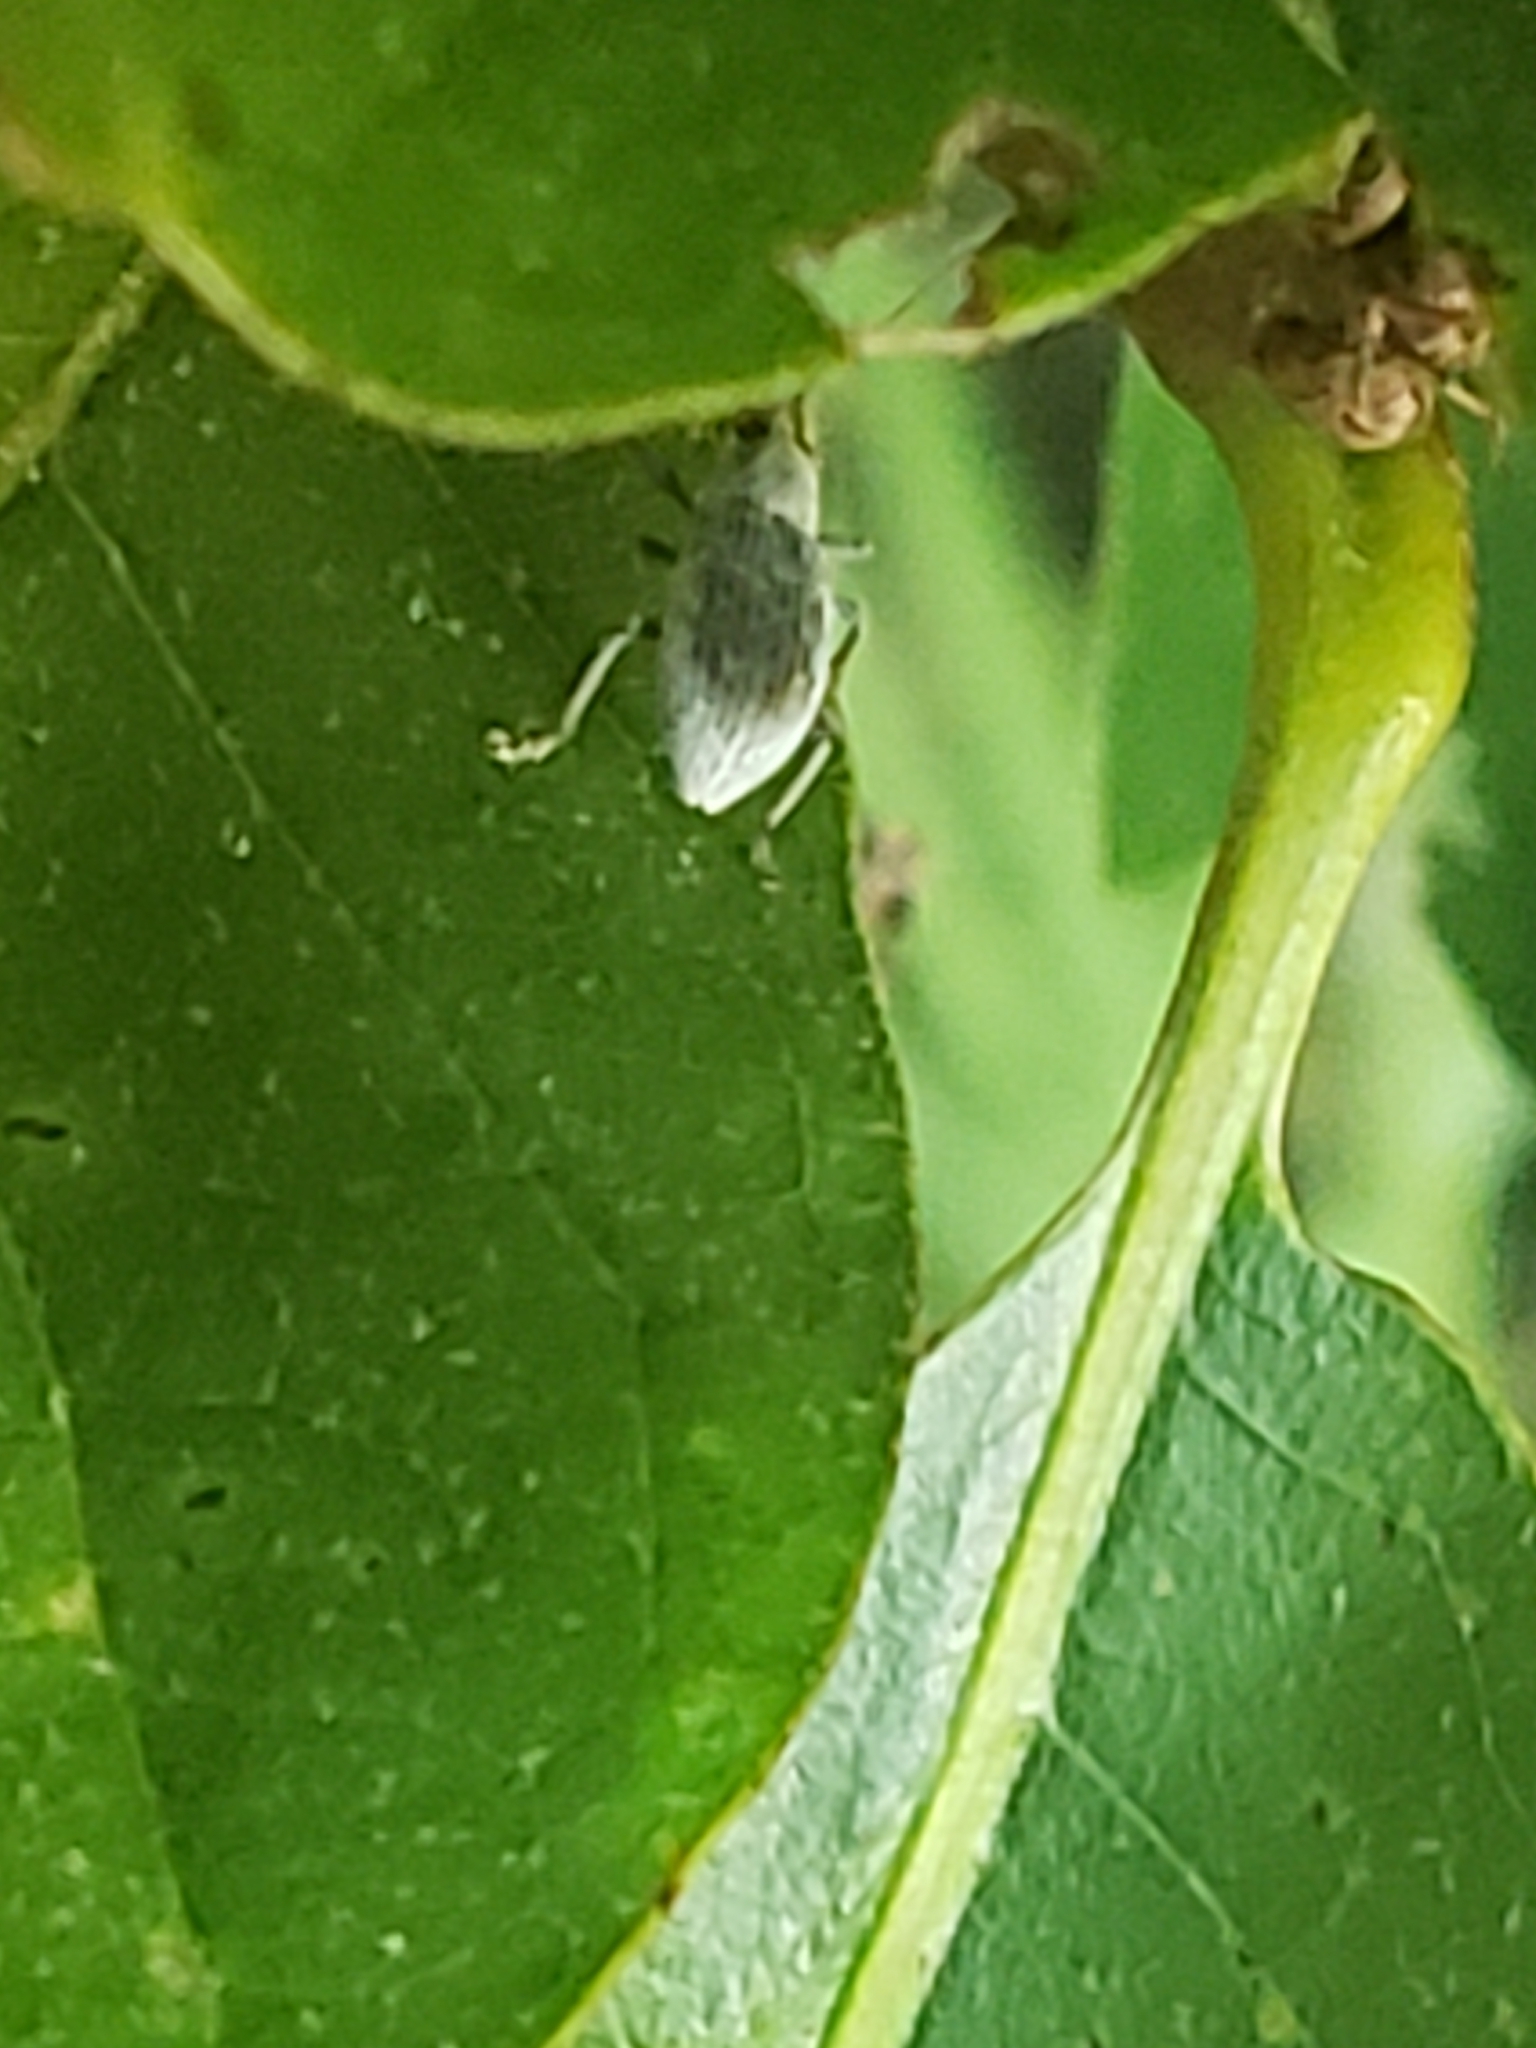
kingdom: Animalia
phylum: Arthropoda
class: Insecta
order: Coleoptera
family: Curculionidae
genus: Cyrtepistomus
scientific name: Cyrtepistomus castaneus
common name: Weevil
